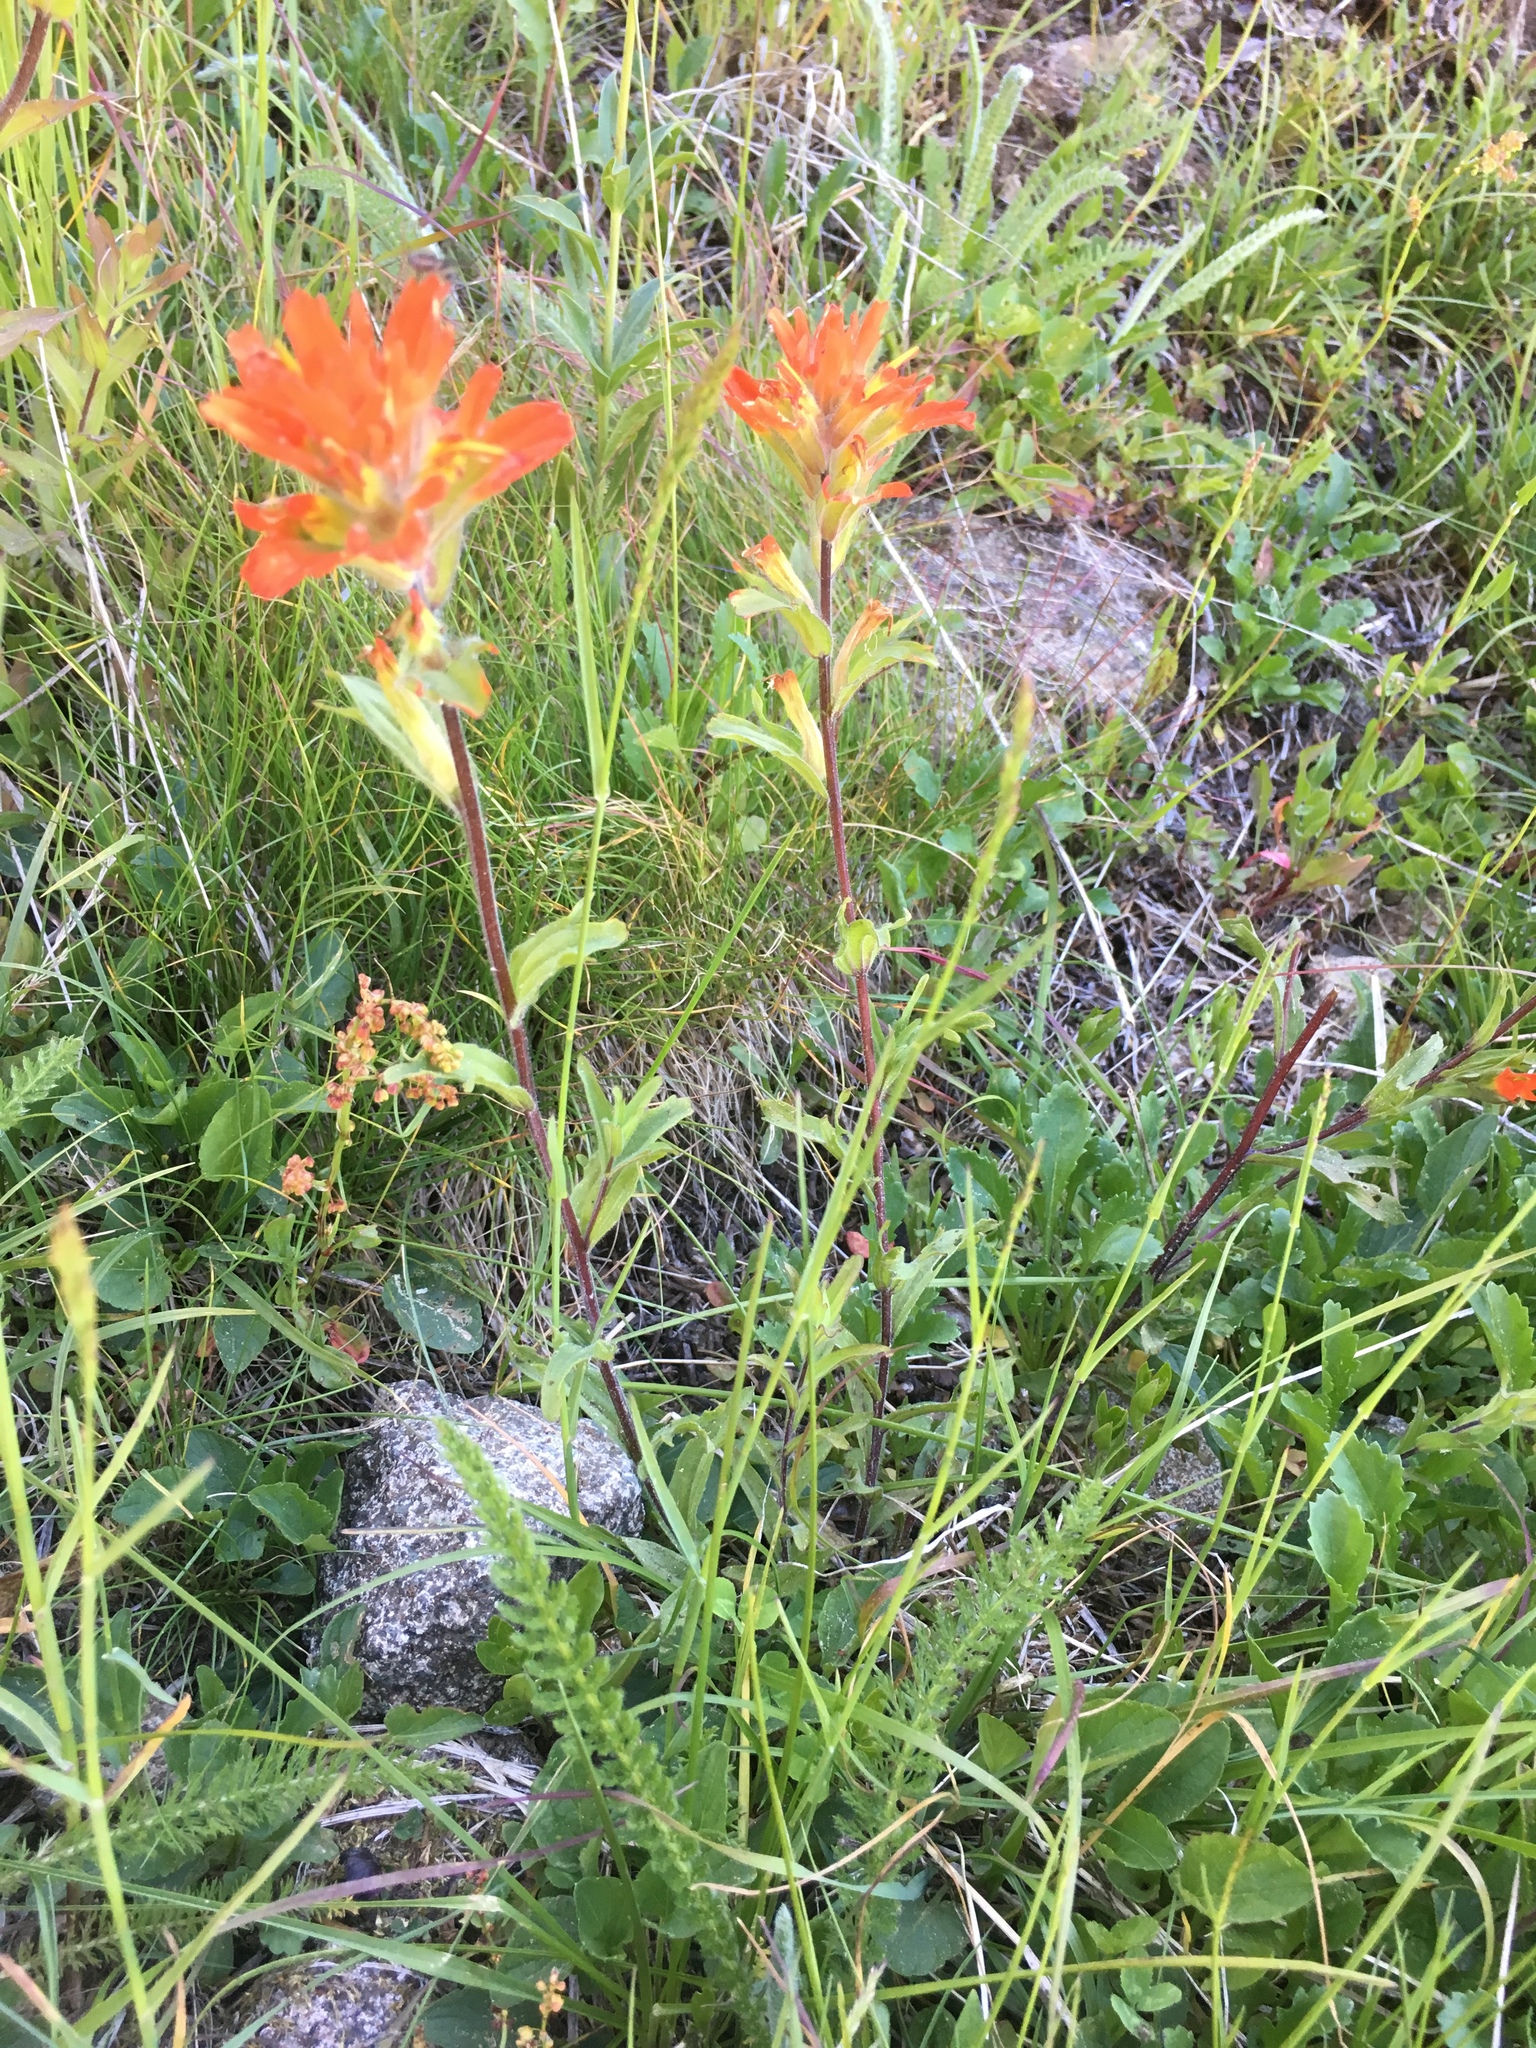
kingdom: Plantae
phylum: Tracheophyta
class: Magnoliopsida
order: Lamiales
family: Orobanchaceae
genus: Castilleja
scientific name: Castilleja hispida
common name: Bristly paintbrush
